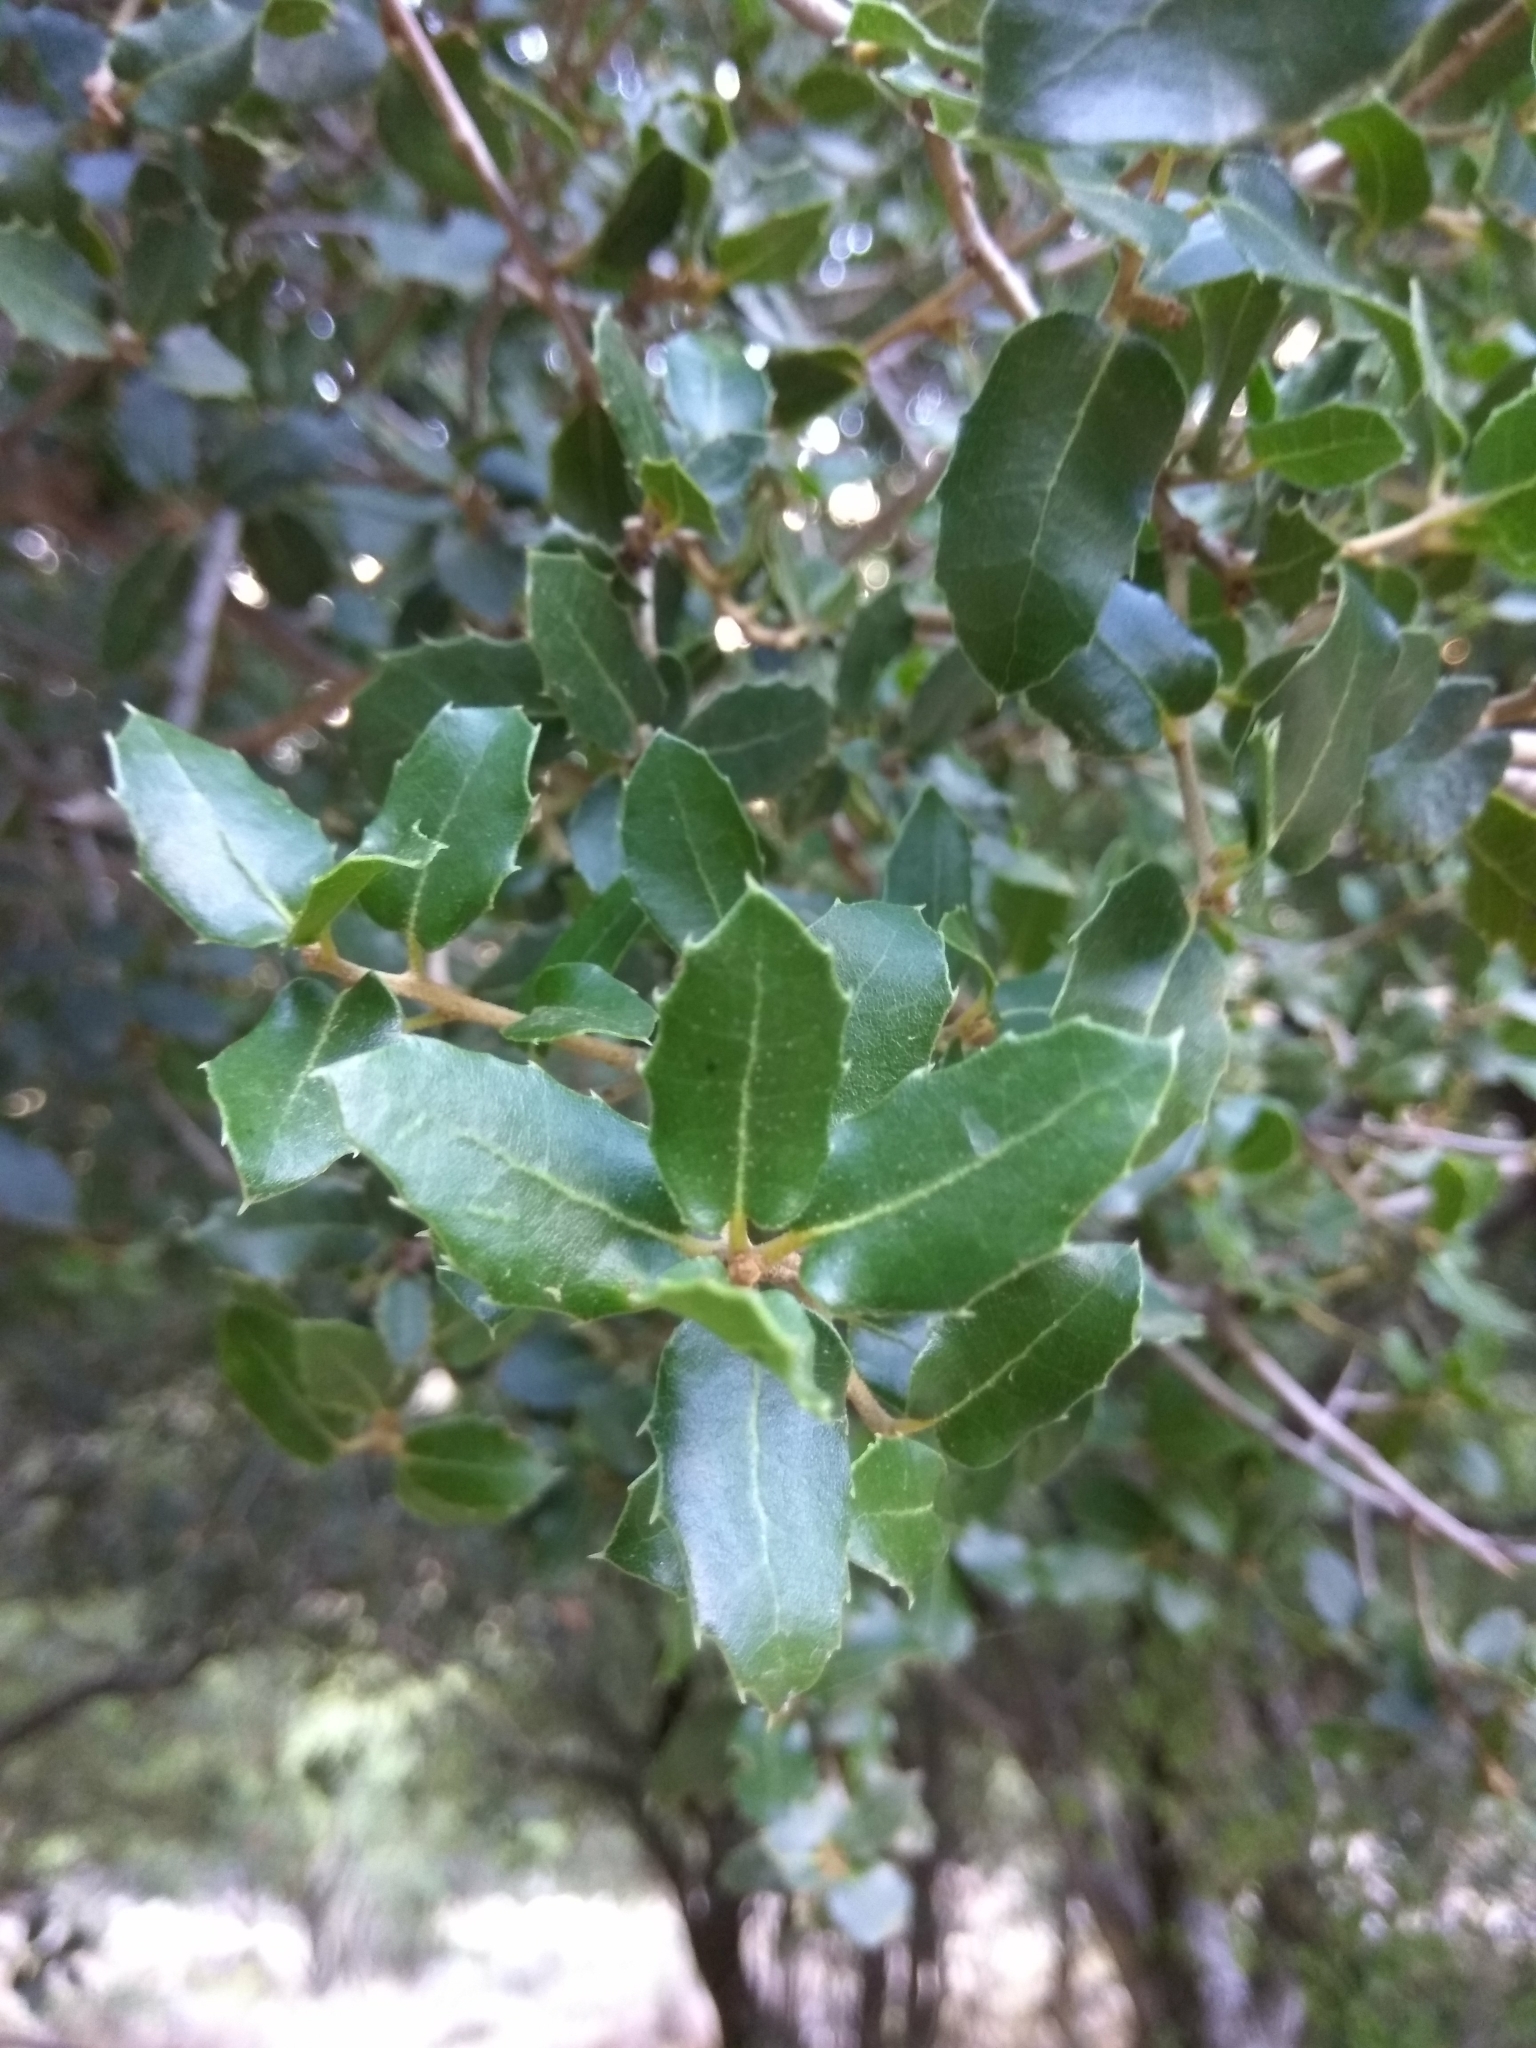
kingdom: Plantae
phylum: Tracheophyta
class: Magnoliopsida
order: Fagales
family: Fagaceae
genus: Quercus
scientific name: Quercus coccifera
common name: Kermes oak
